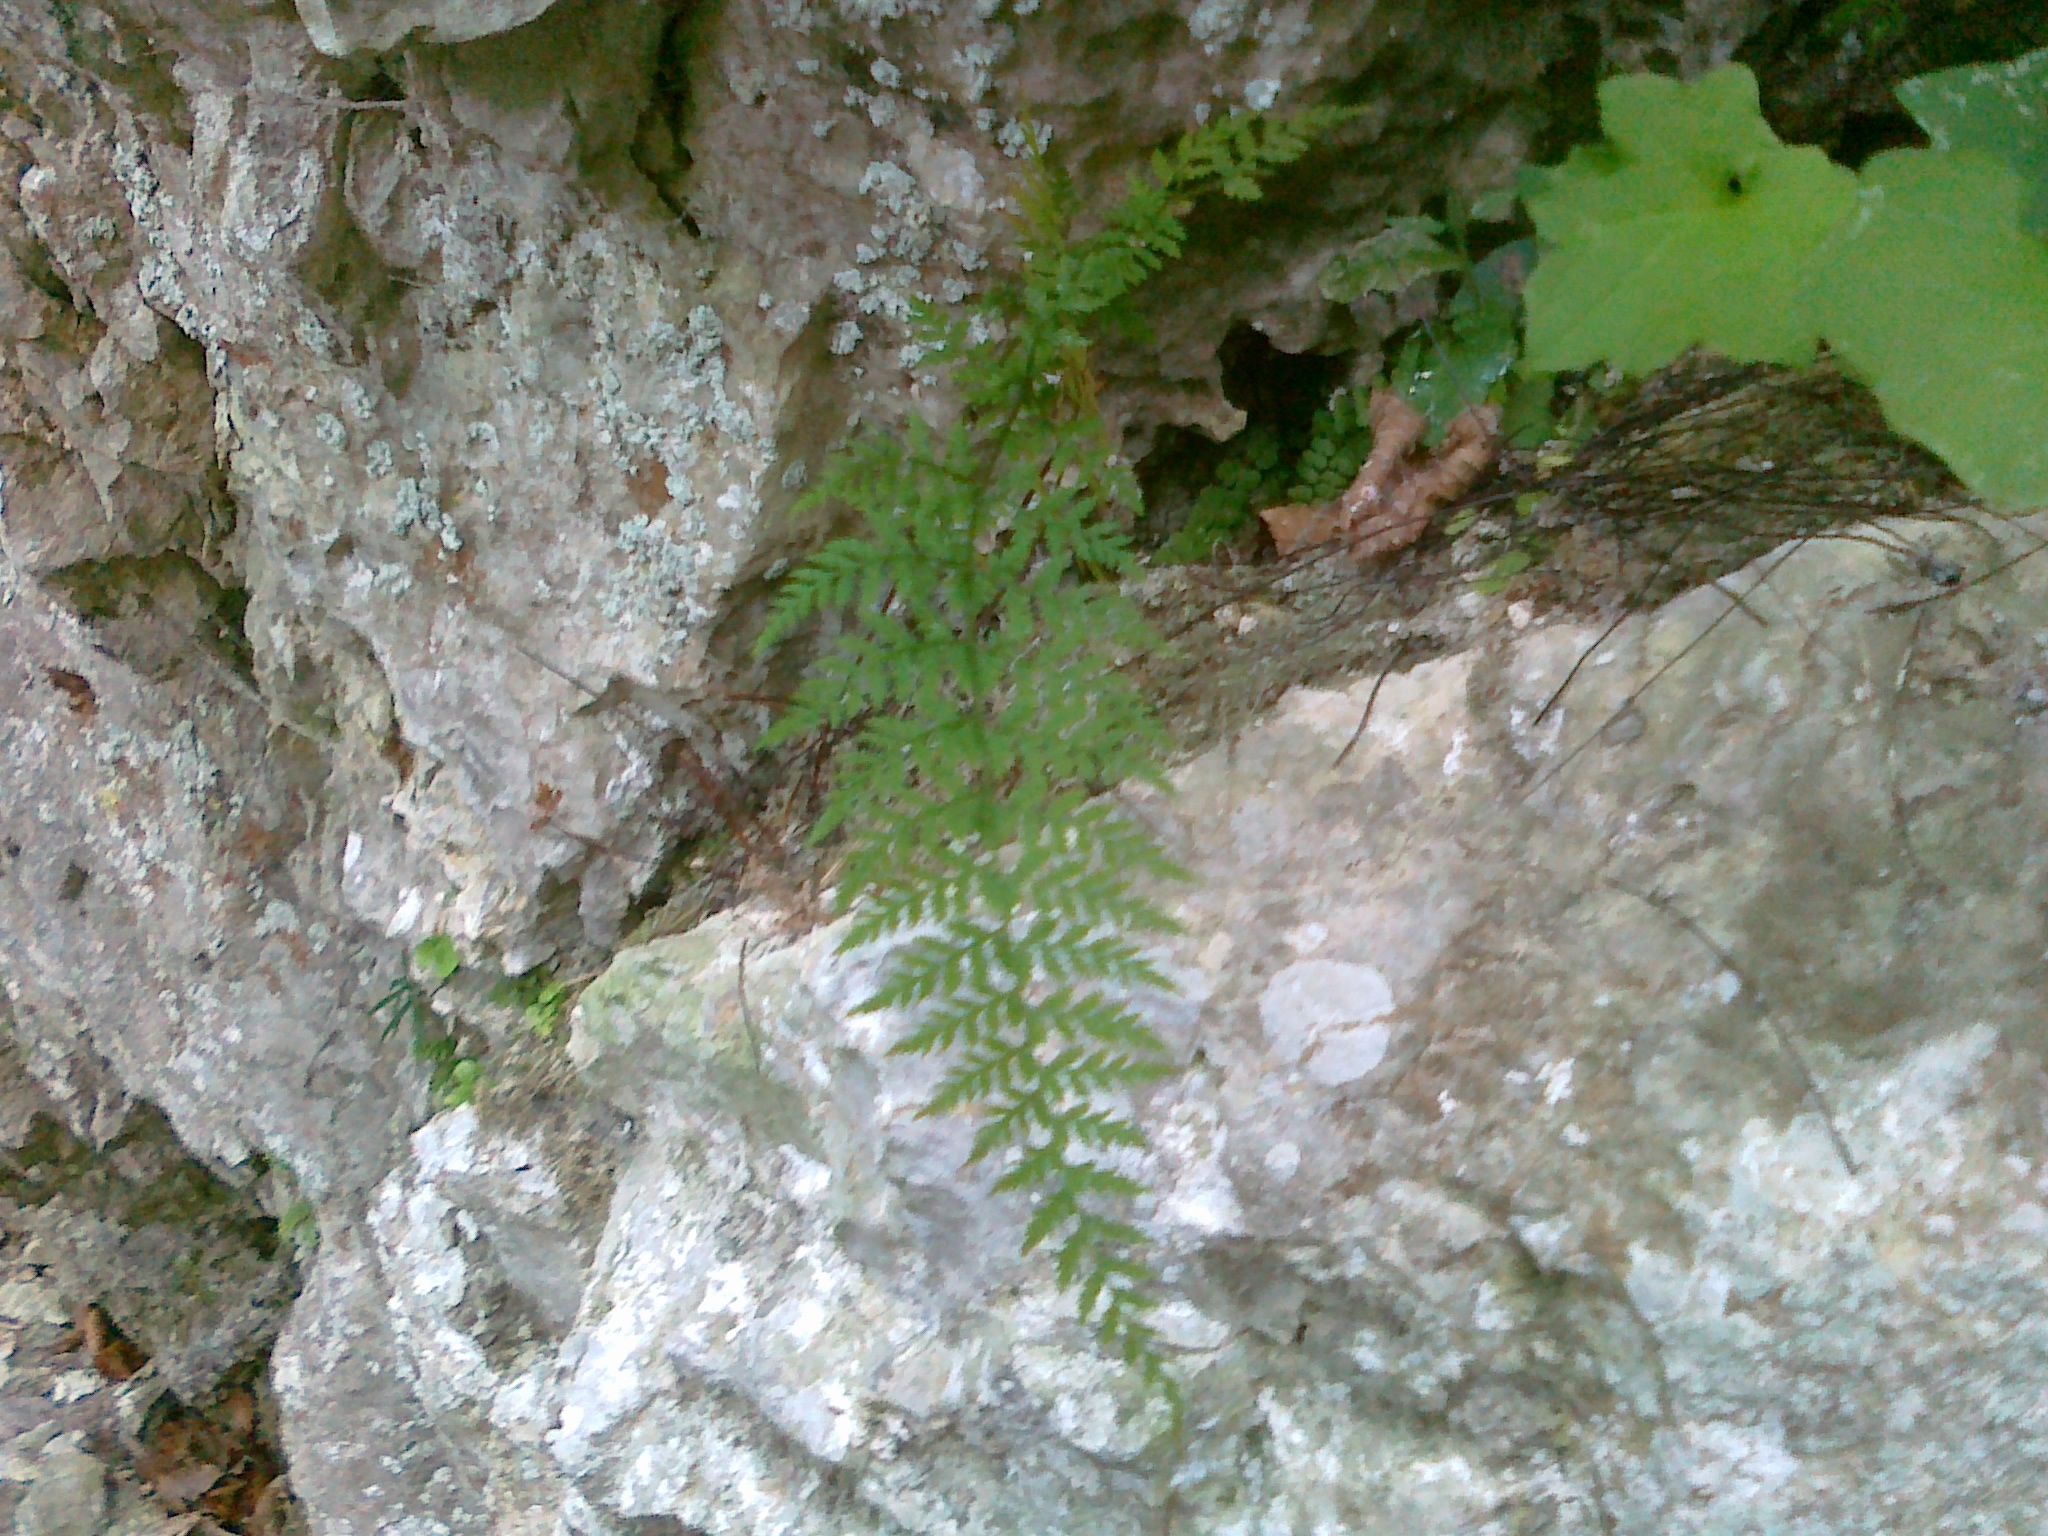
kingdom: Plantae
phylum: Tracheophyta
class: Polypodiopsida
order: Polypodiales
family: Cystopteridaceae
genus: Cystopteris
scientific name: Cystopteris fragilis
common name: Brittle bladder fern
